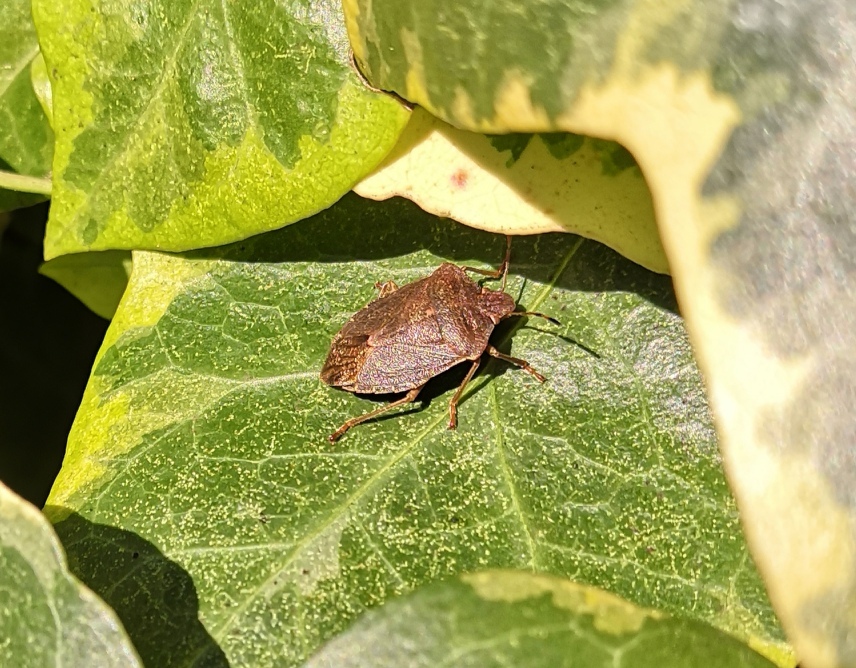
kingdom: Animalia
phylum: Arthropoda
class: Insecta
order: Hemiptera
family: Pentatomidae
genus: Palomena
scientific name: Palomena prasina
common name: Green shieldbug
